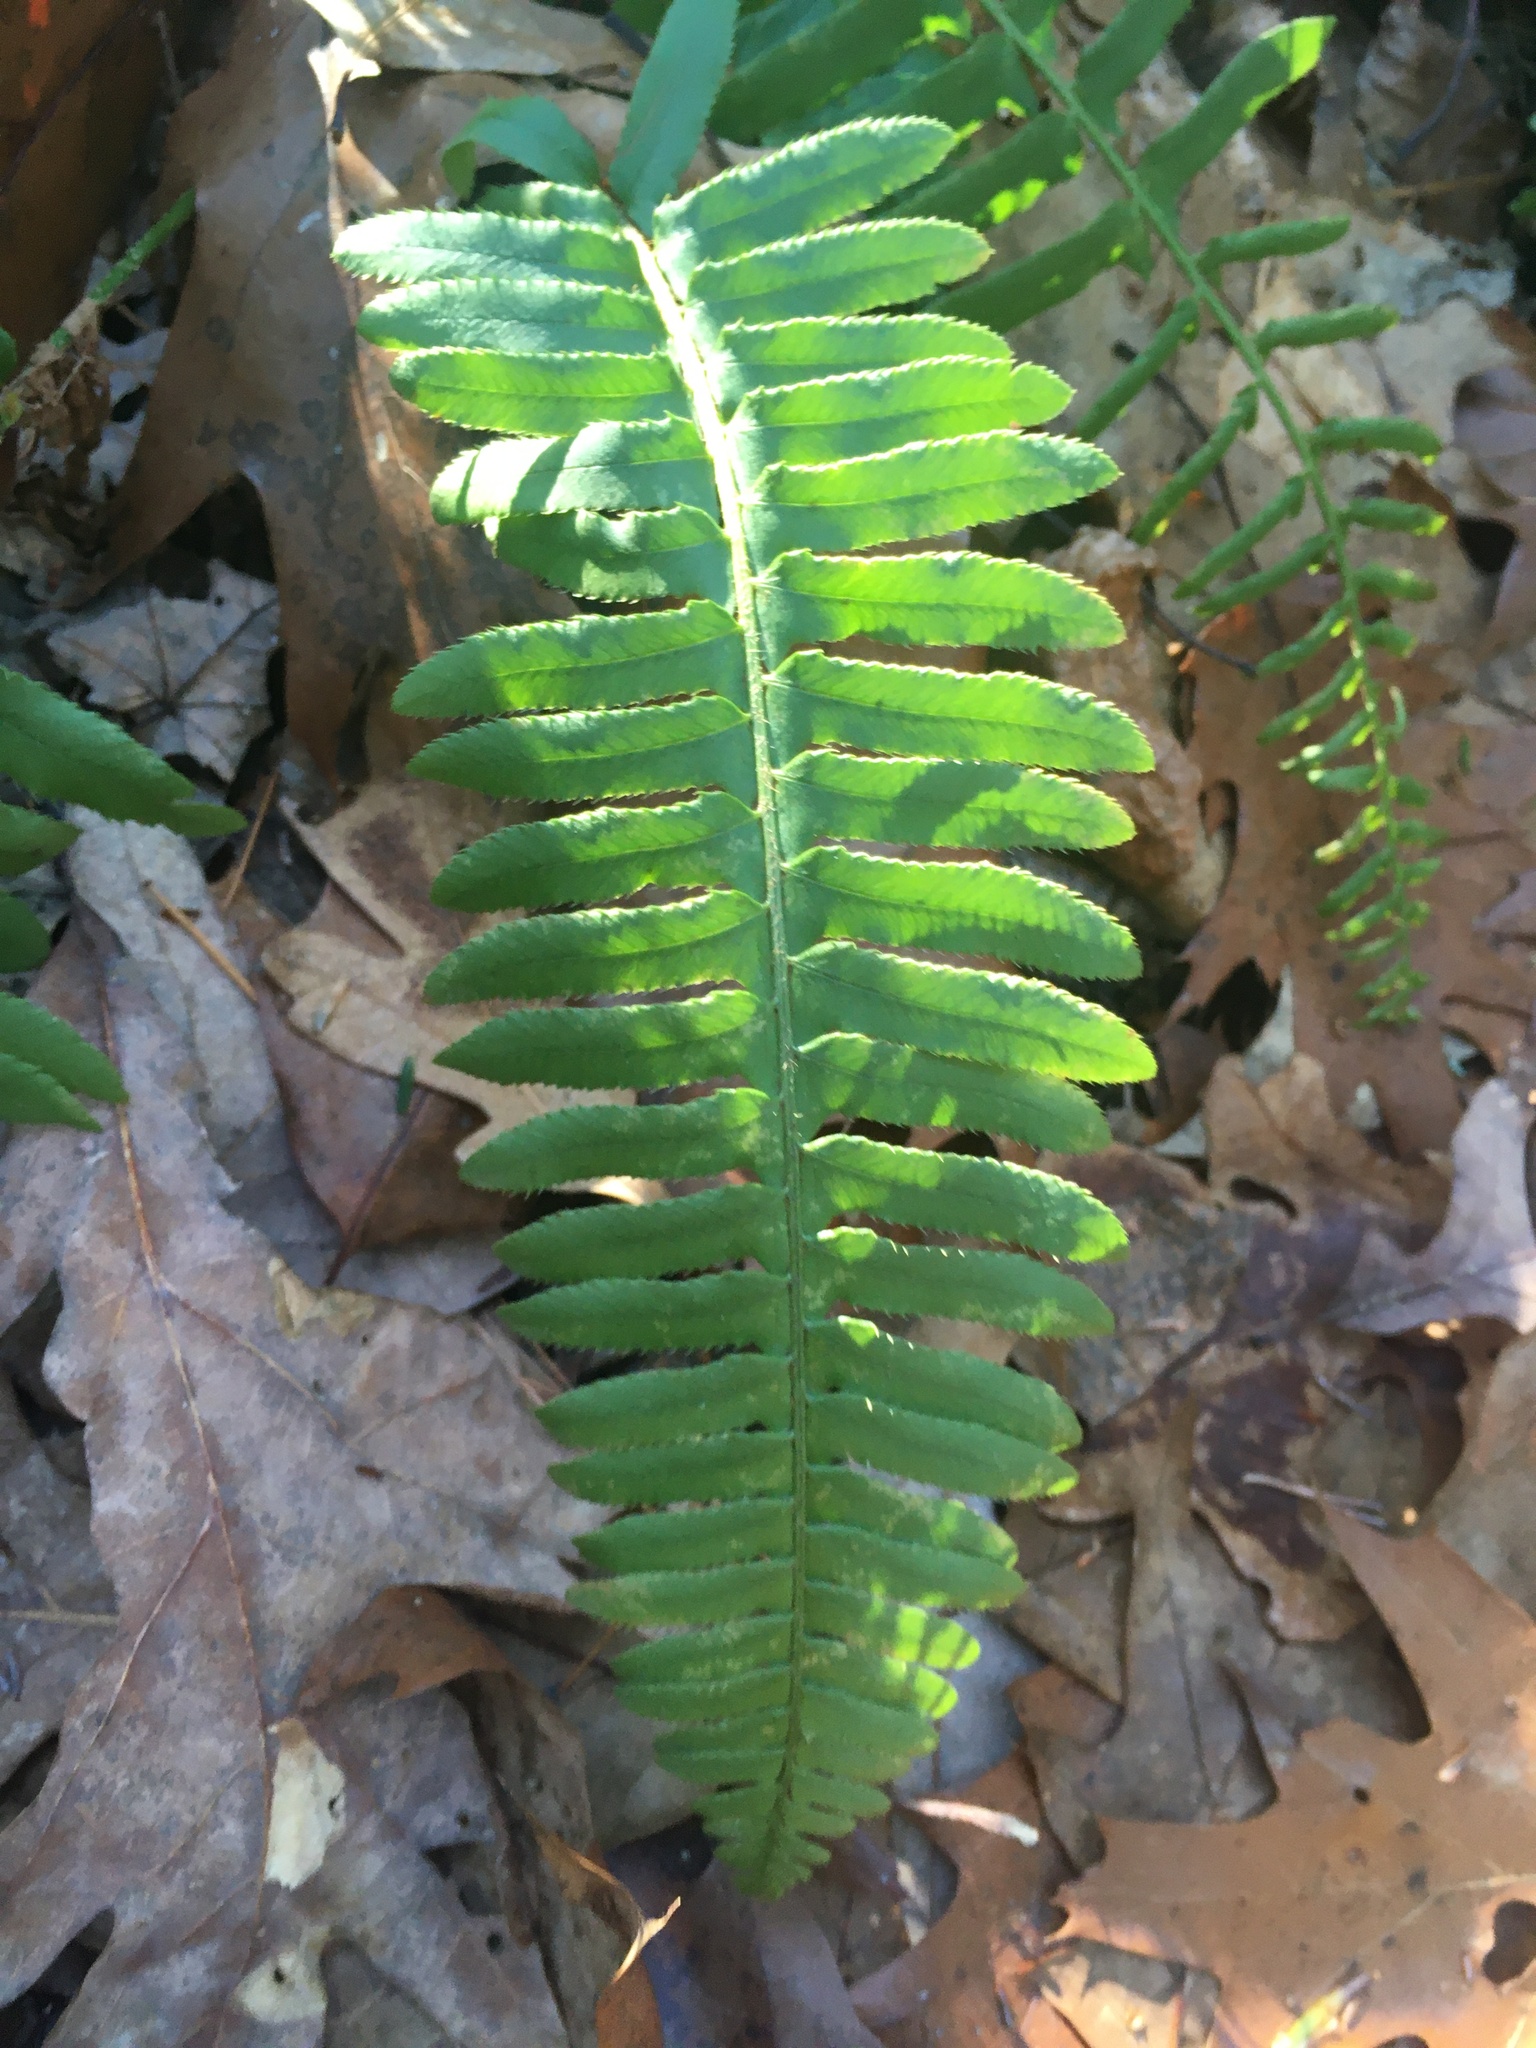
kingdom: Plantae
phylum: Tracheophyta
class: Polypodiopsida
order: Polypodiales
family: Dryopteridaceae
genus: Polystichum
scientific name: Polystichum acrostichoides
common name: Christmas fern
